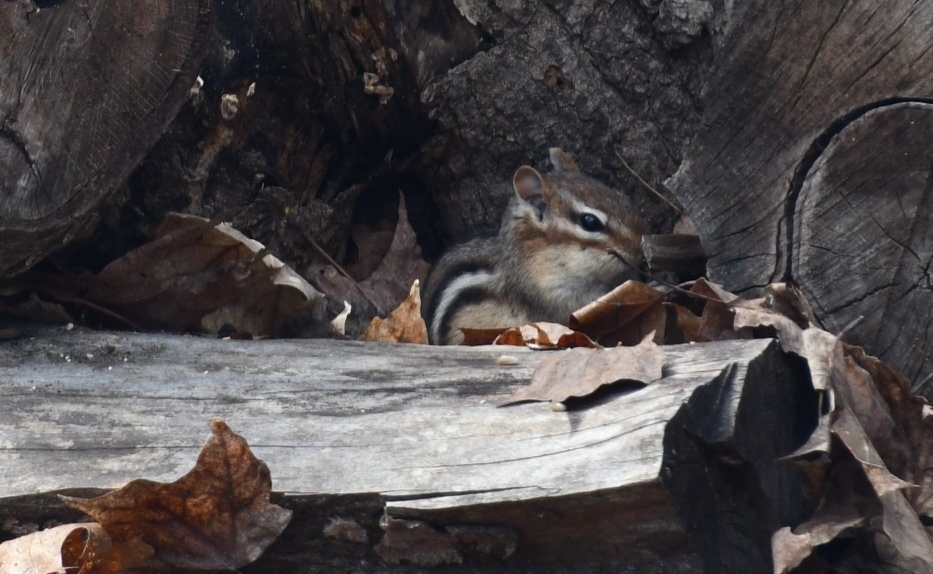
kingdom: Animalia
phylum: Chordata
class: Mammalia
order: Rodentia
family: Sciuridae
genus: Tamias
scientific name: Tamias striatus
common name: Eastern chipmunk
